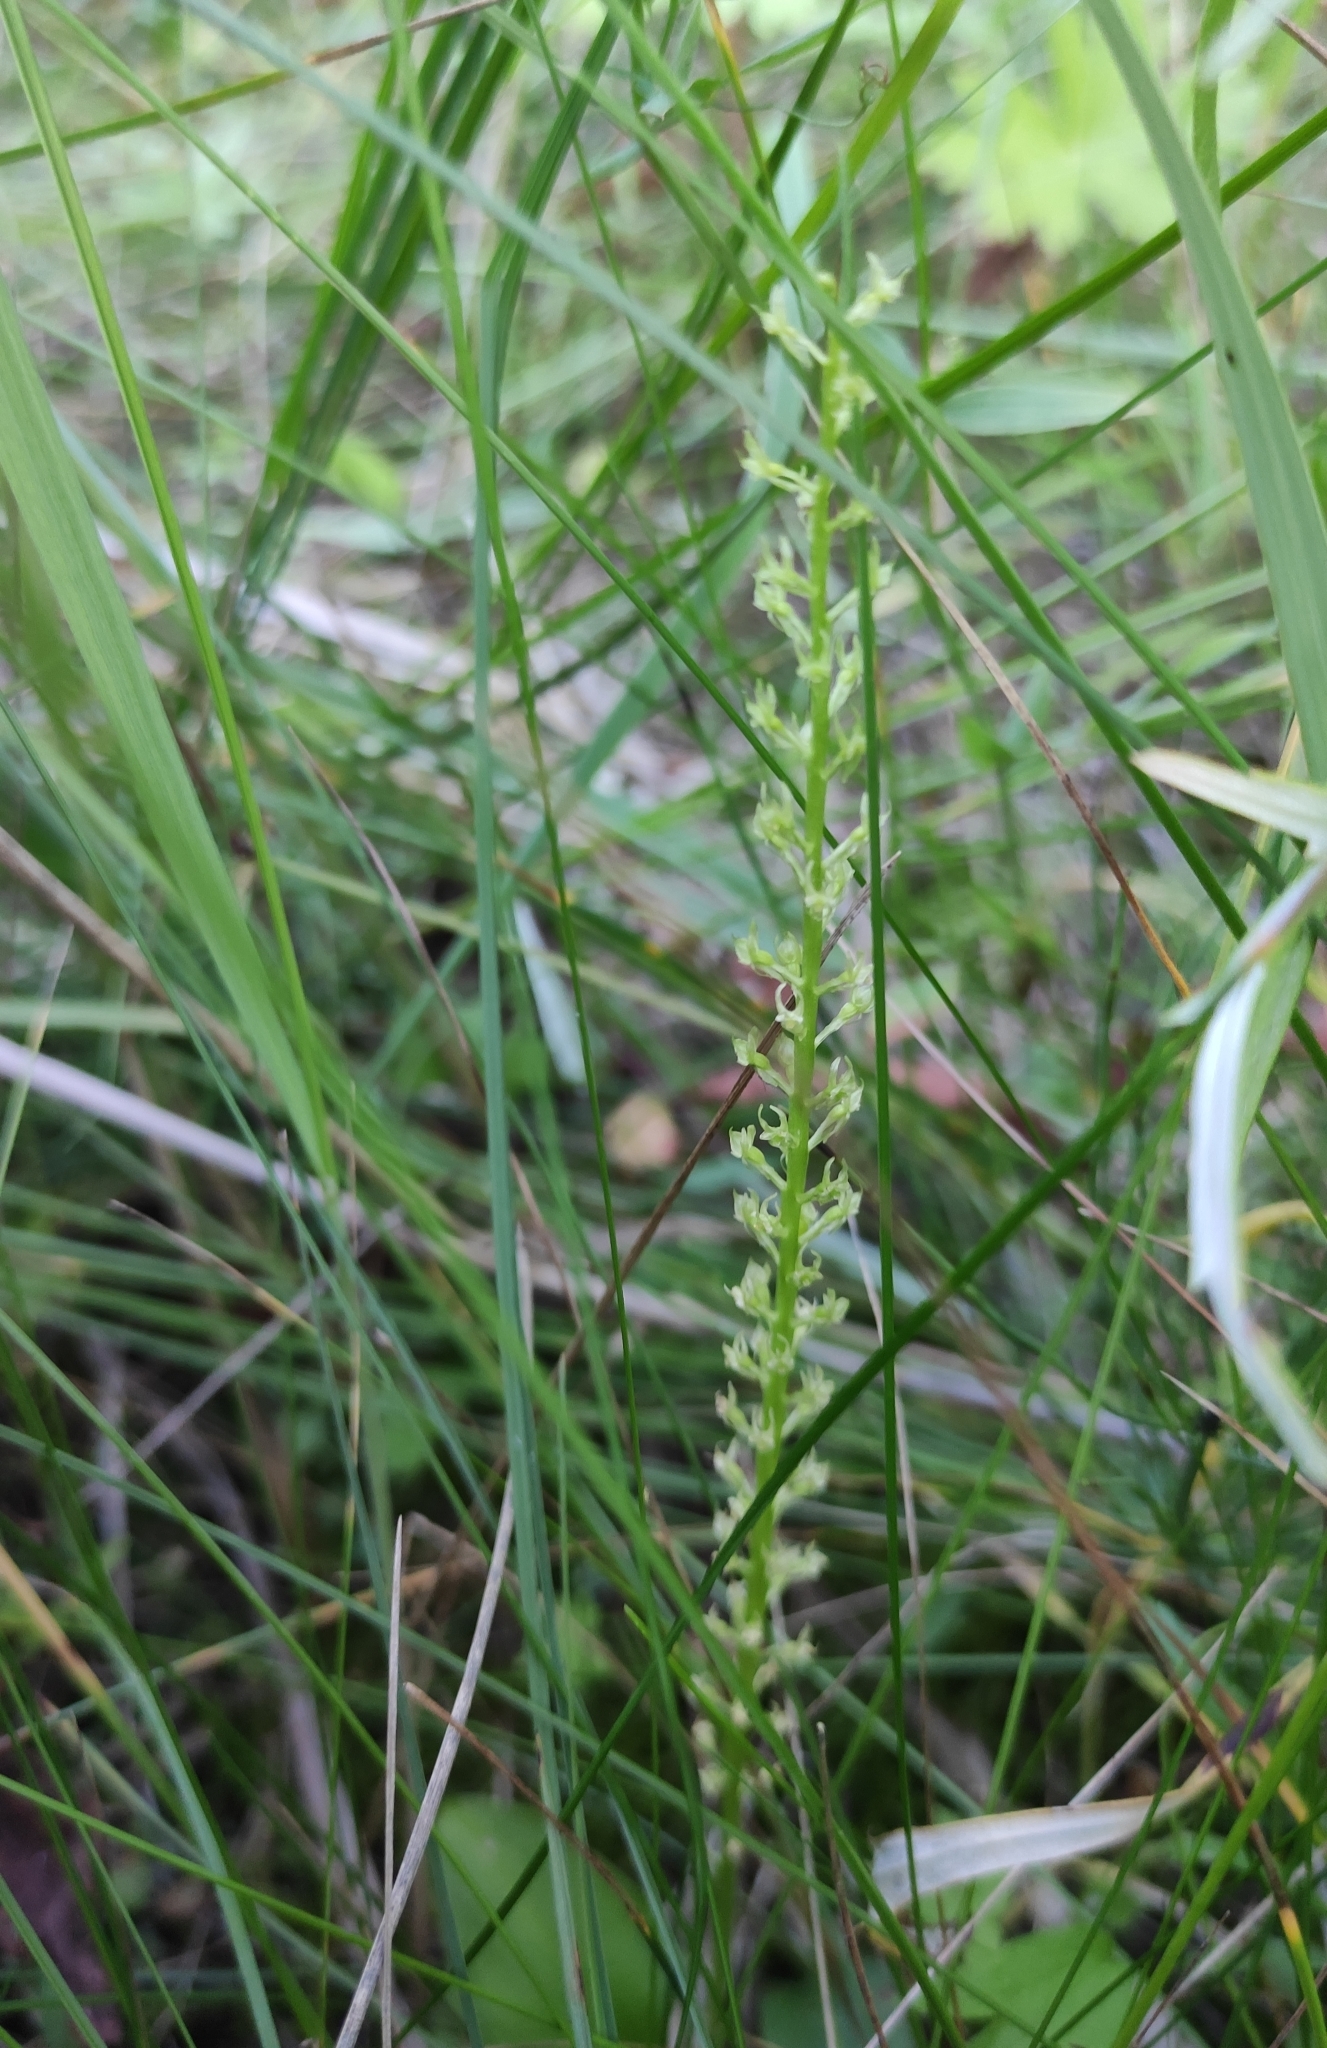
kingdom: Plantae
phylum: Tracheophyta
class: Liliopsida
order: Asparagales
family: Orchidaceae
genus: Malaxis
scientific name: Malaxis monophyllos
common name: White adder's-mouth
